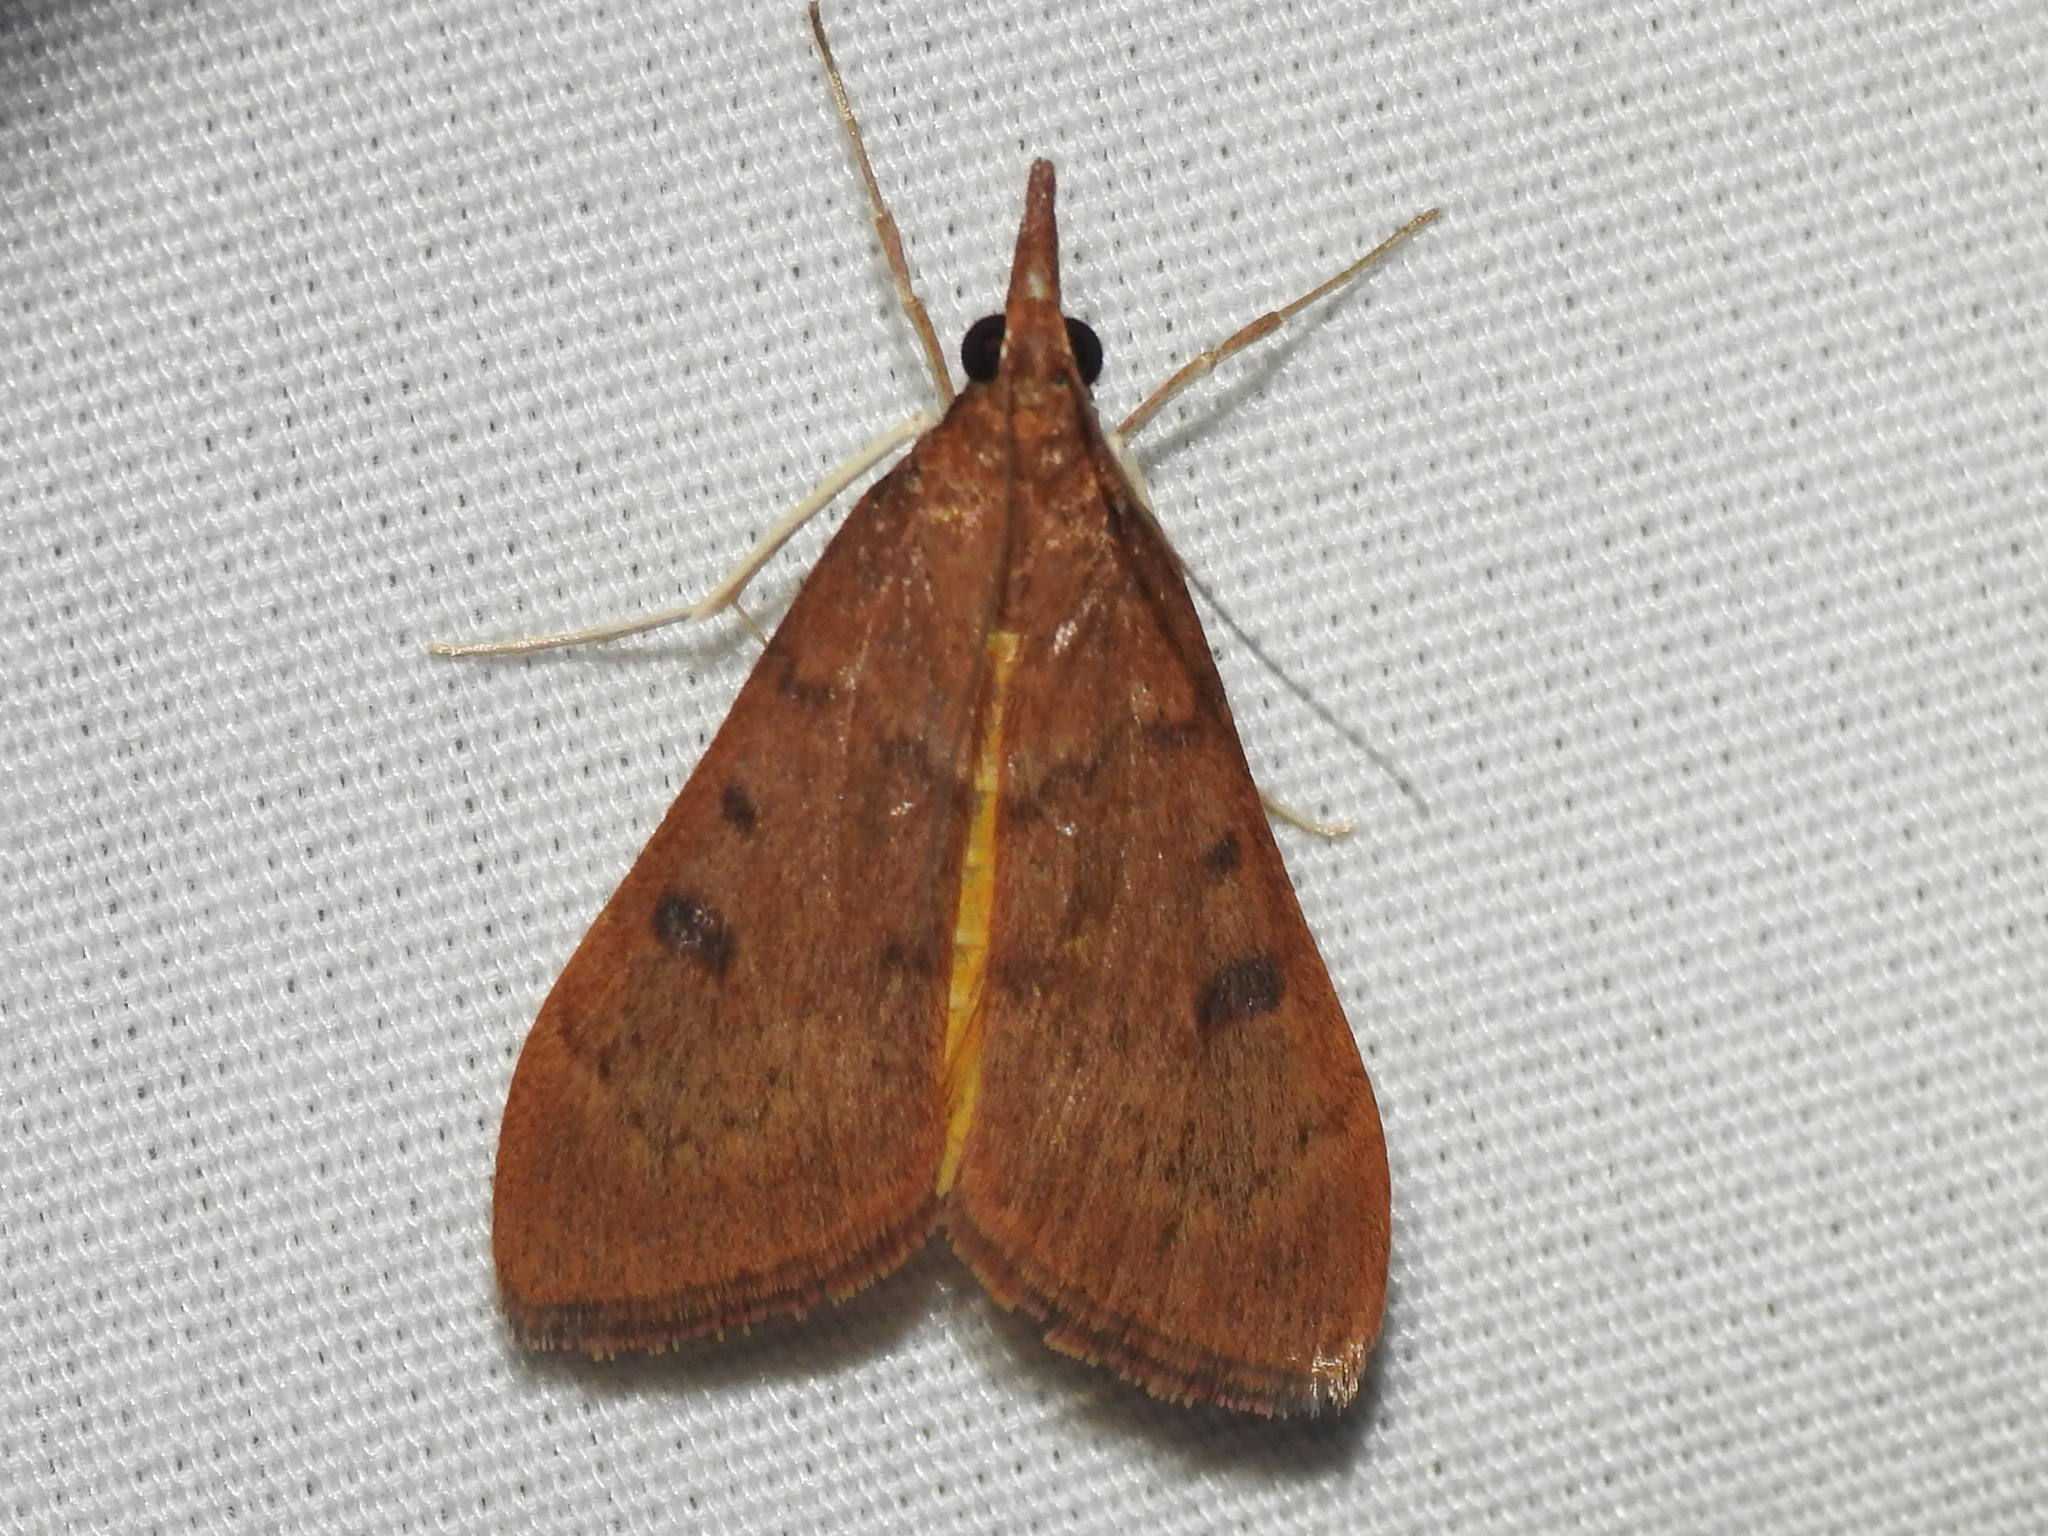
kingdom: Animalia
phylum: Arthropoda
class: Insecta
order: Lepidoptera
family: Crambidae
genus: Uresiphita
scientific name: Uresiphita reversalis
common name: Genista broom moth
